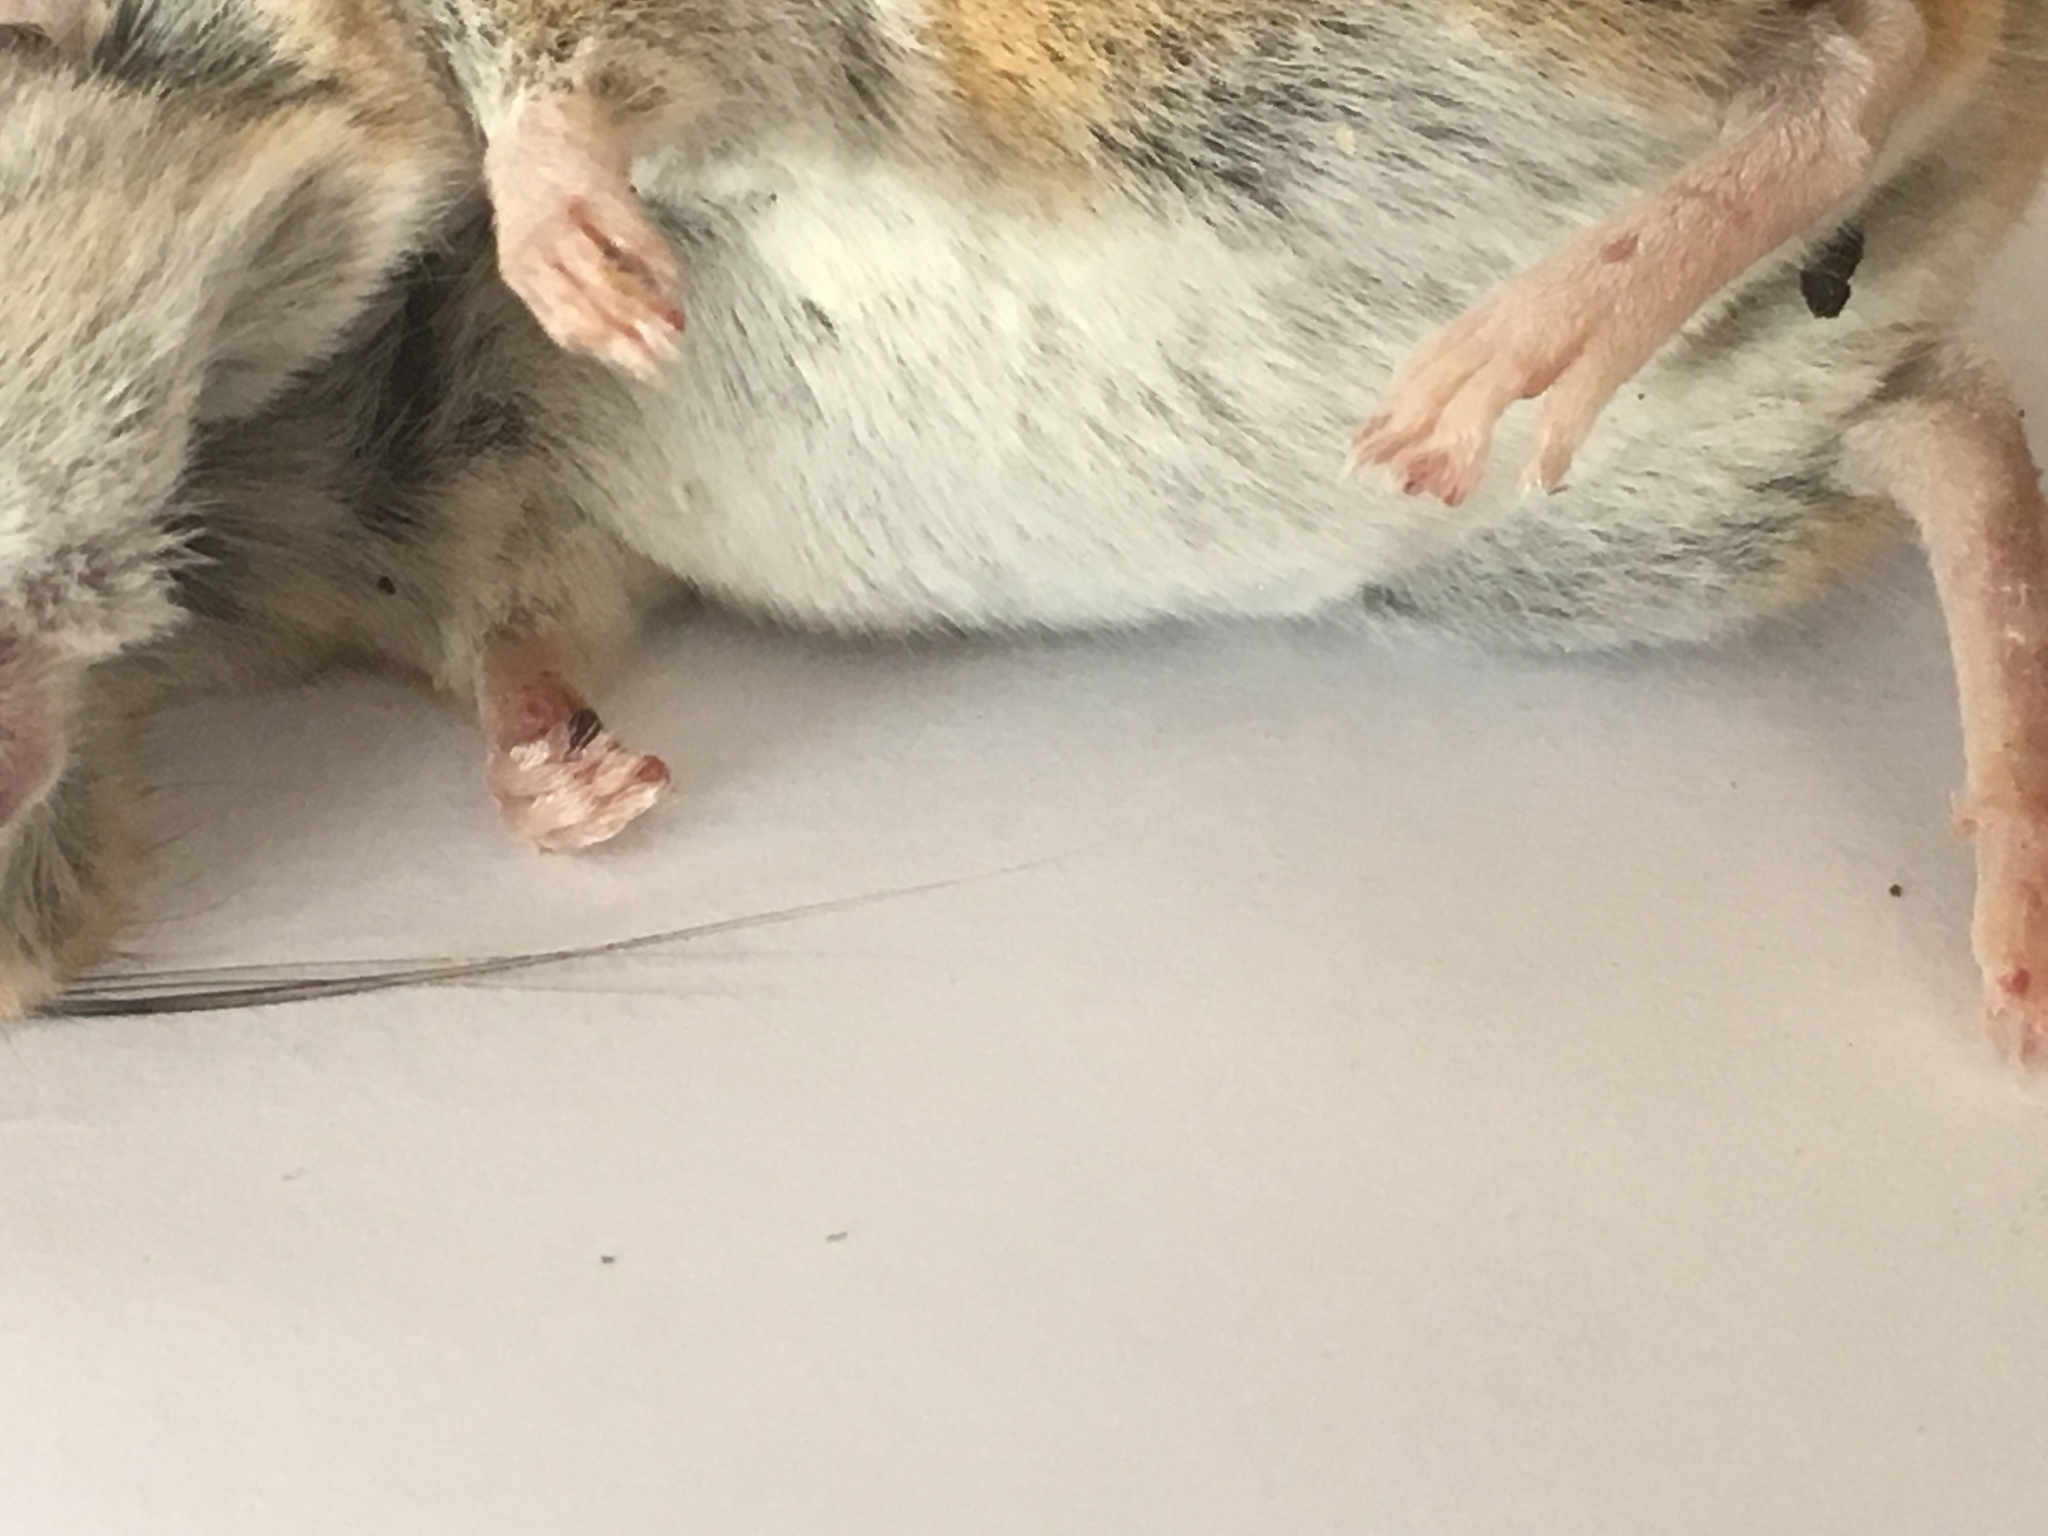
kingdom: Animalia
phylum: Chordata
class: Mammalia
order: Rodentia
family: Cricetidae
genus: Peromyscus
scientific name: Peromyscus eremicus
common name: Cactus deermouse
